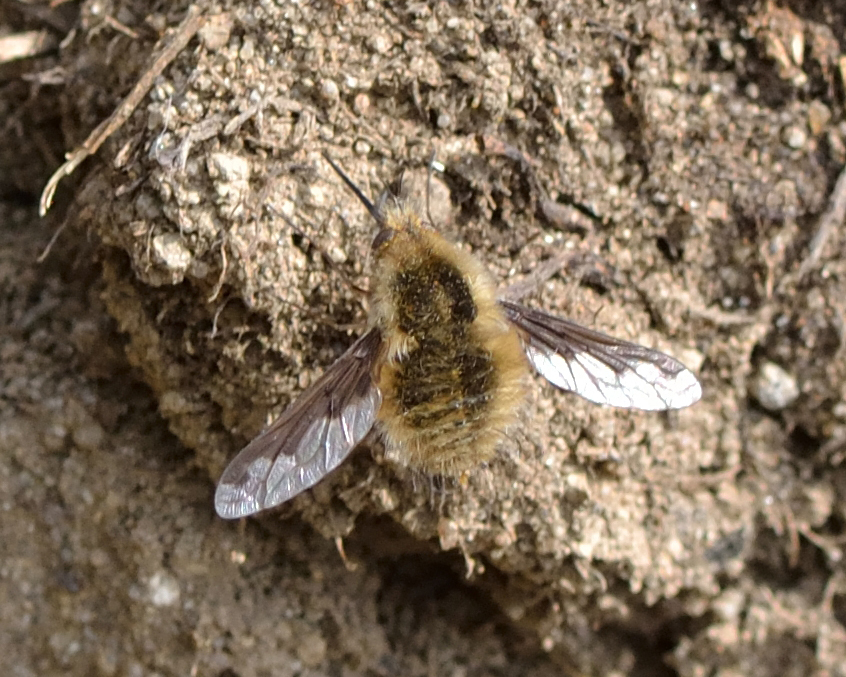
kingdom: Animalia
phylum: Arthropoda
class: Insecta
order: Diptera
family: Bombyliidae
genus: Bombylius
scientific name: Bombylius major
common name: Bee fly
